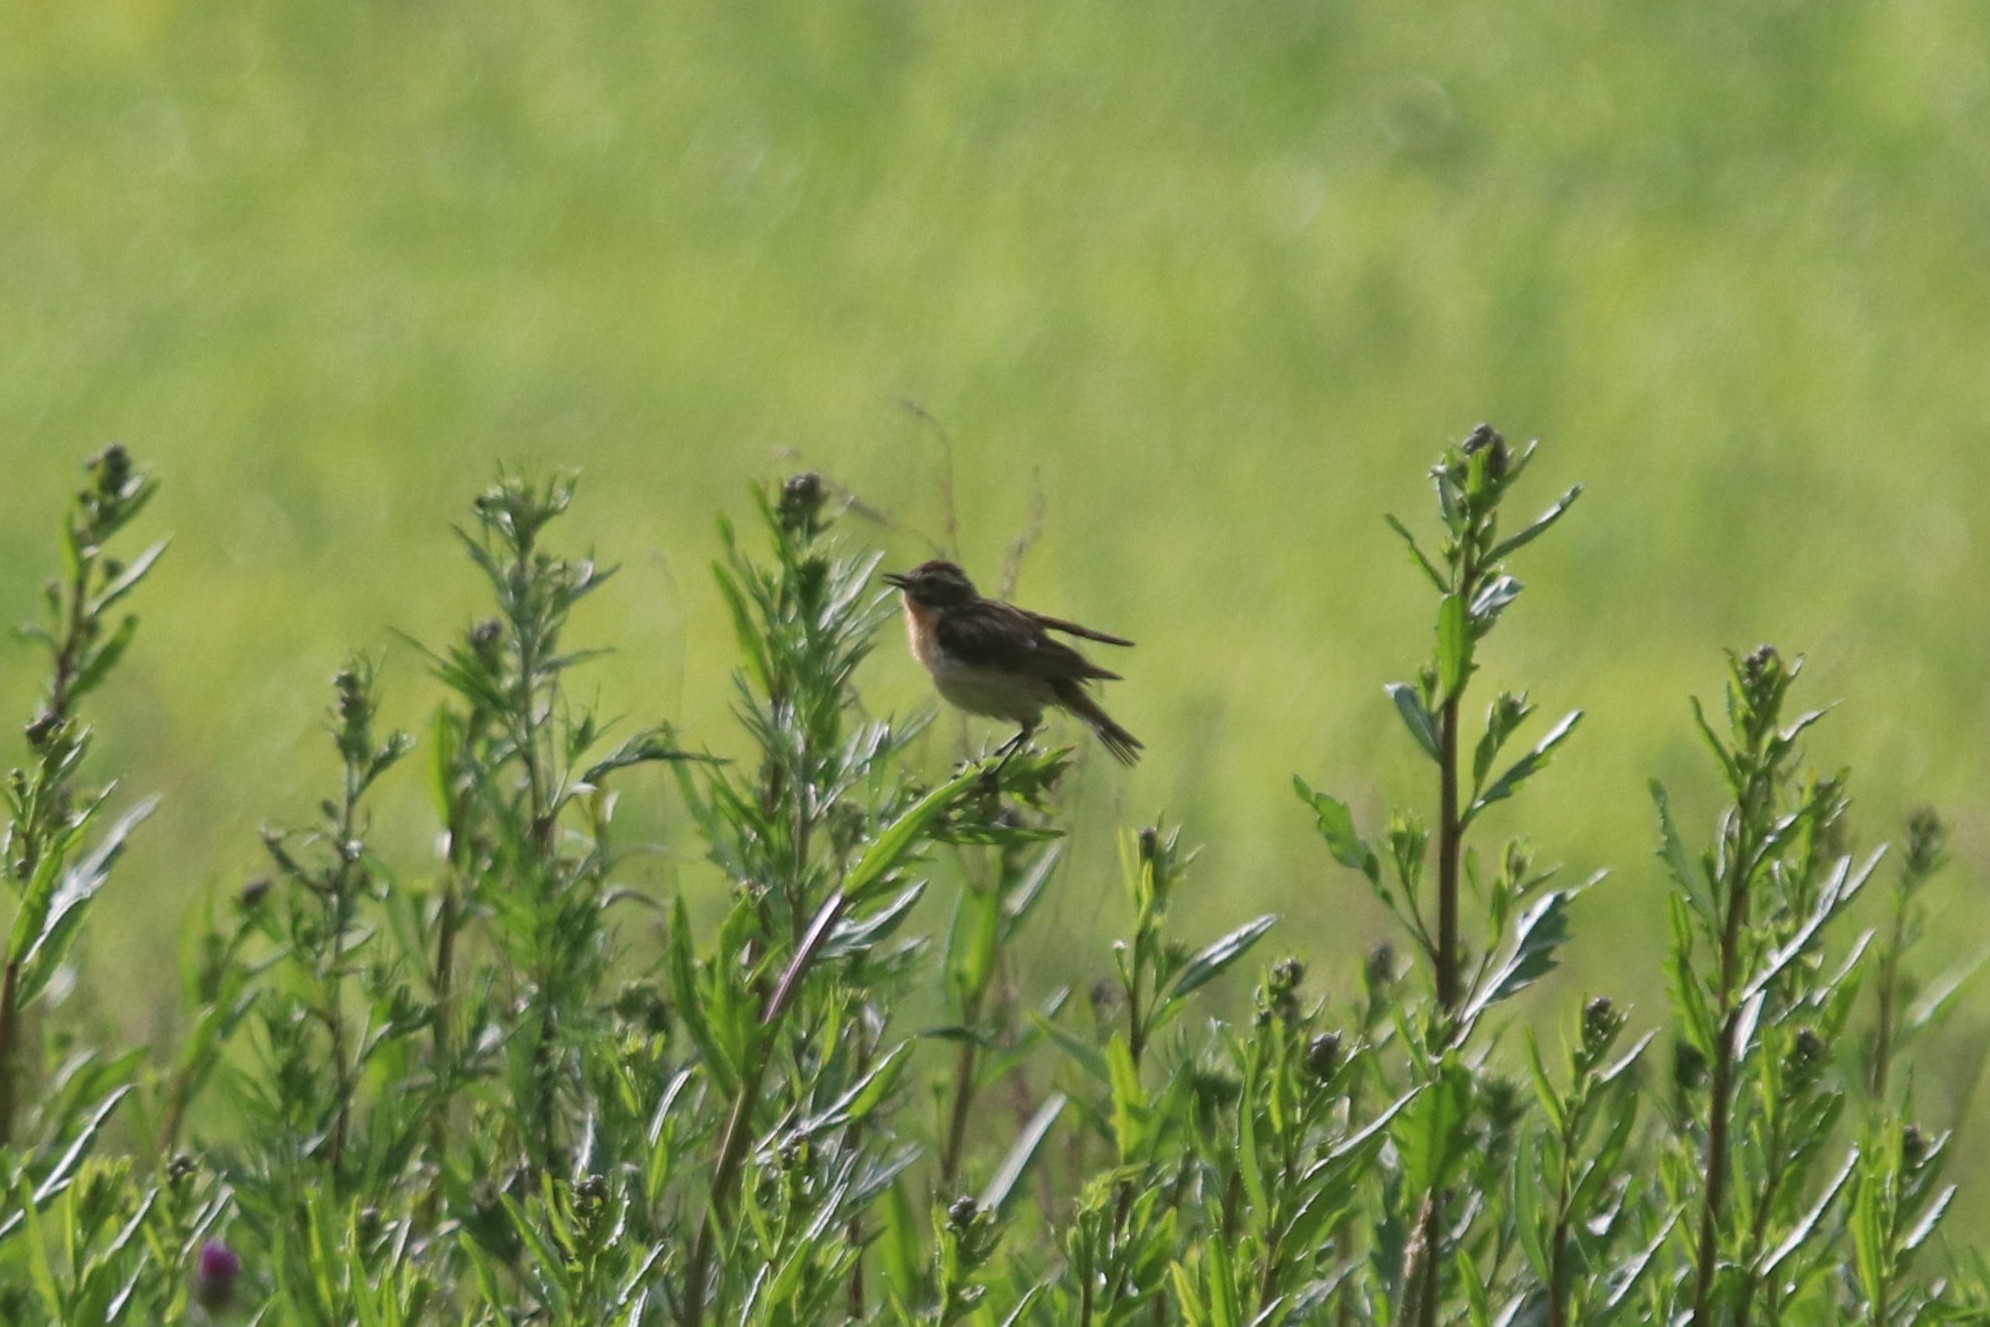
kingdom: Animalia
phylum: Chordata
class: Aves
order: Passeriformes
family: Muscicapidae
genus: Saxicola
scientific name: Saxicola rubetra
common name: Whinchat
